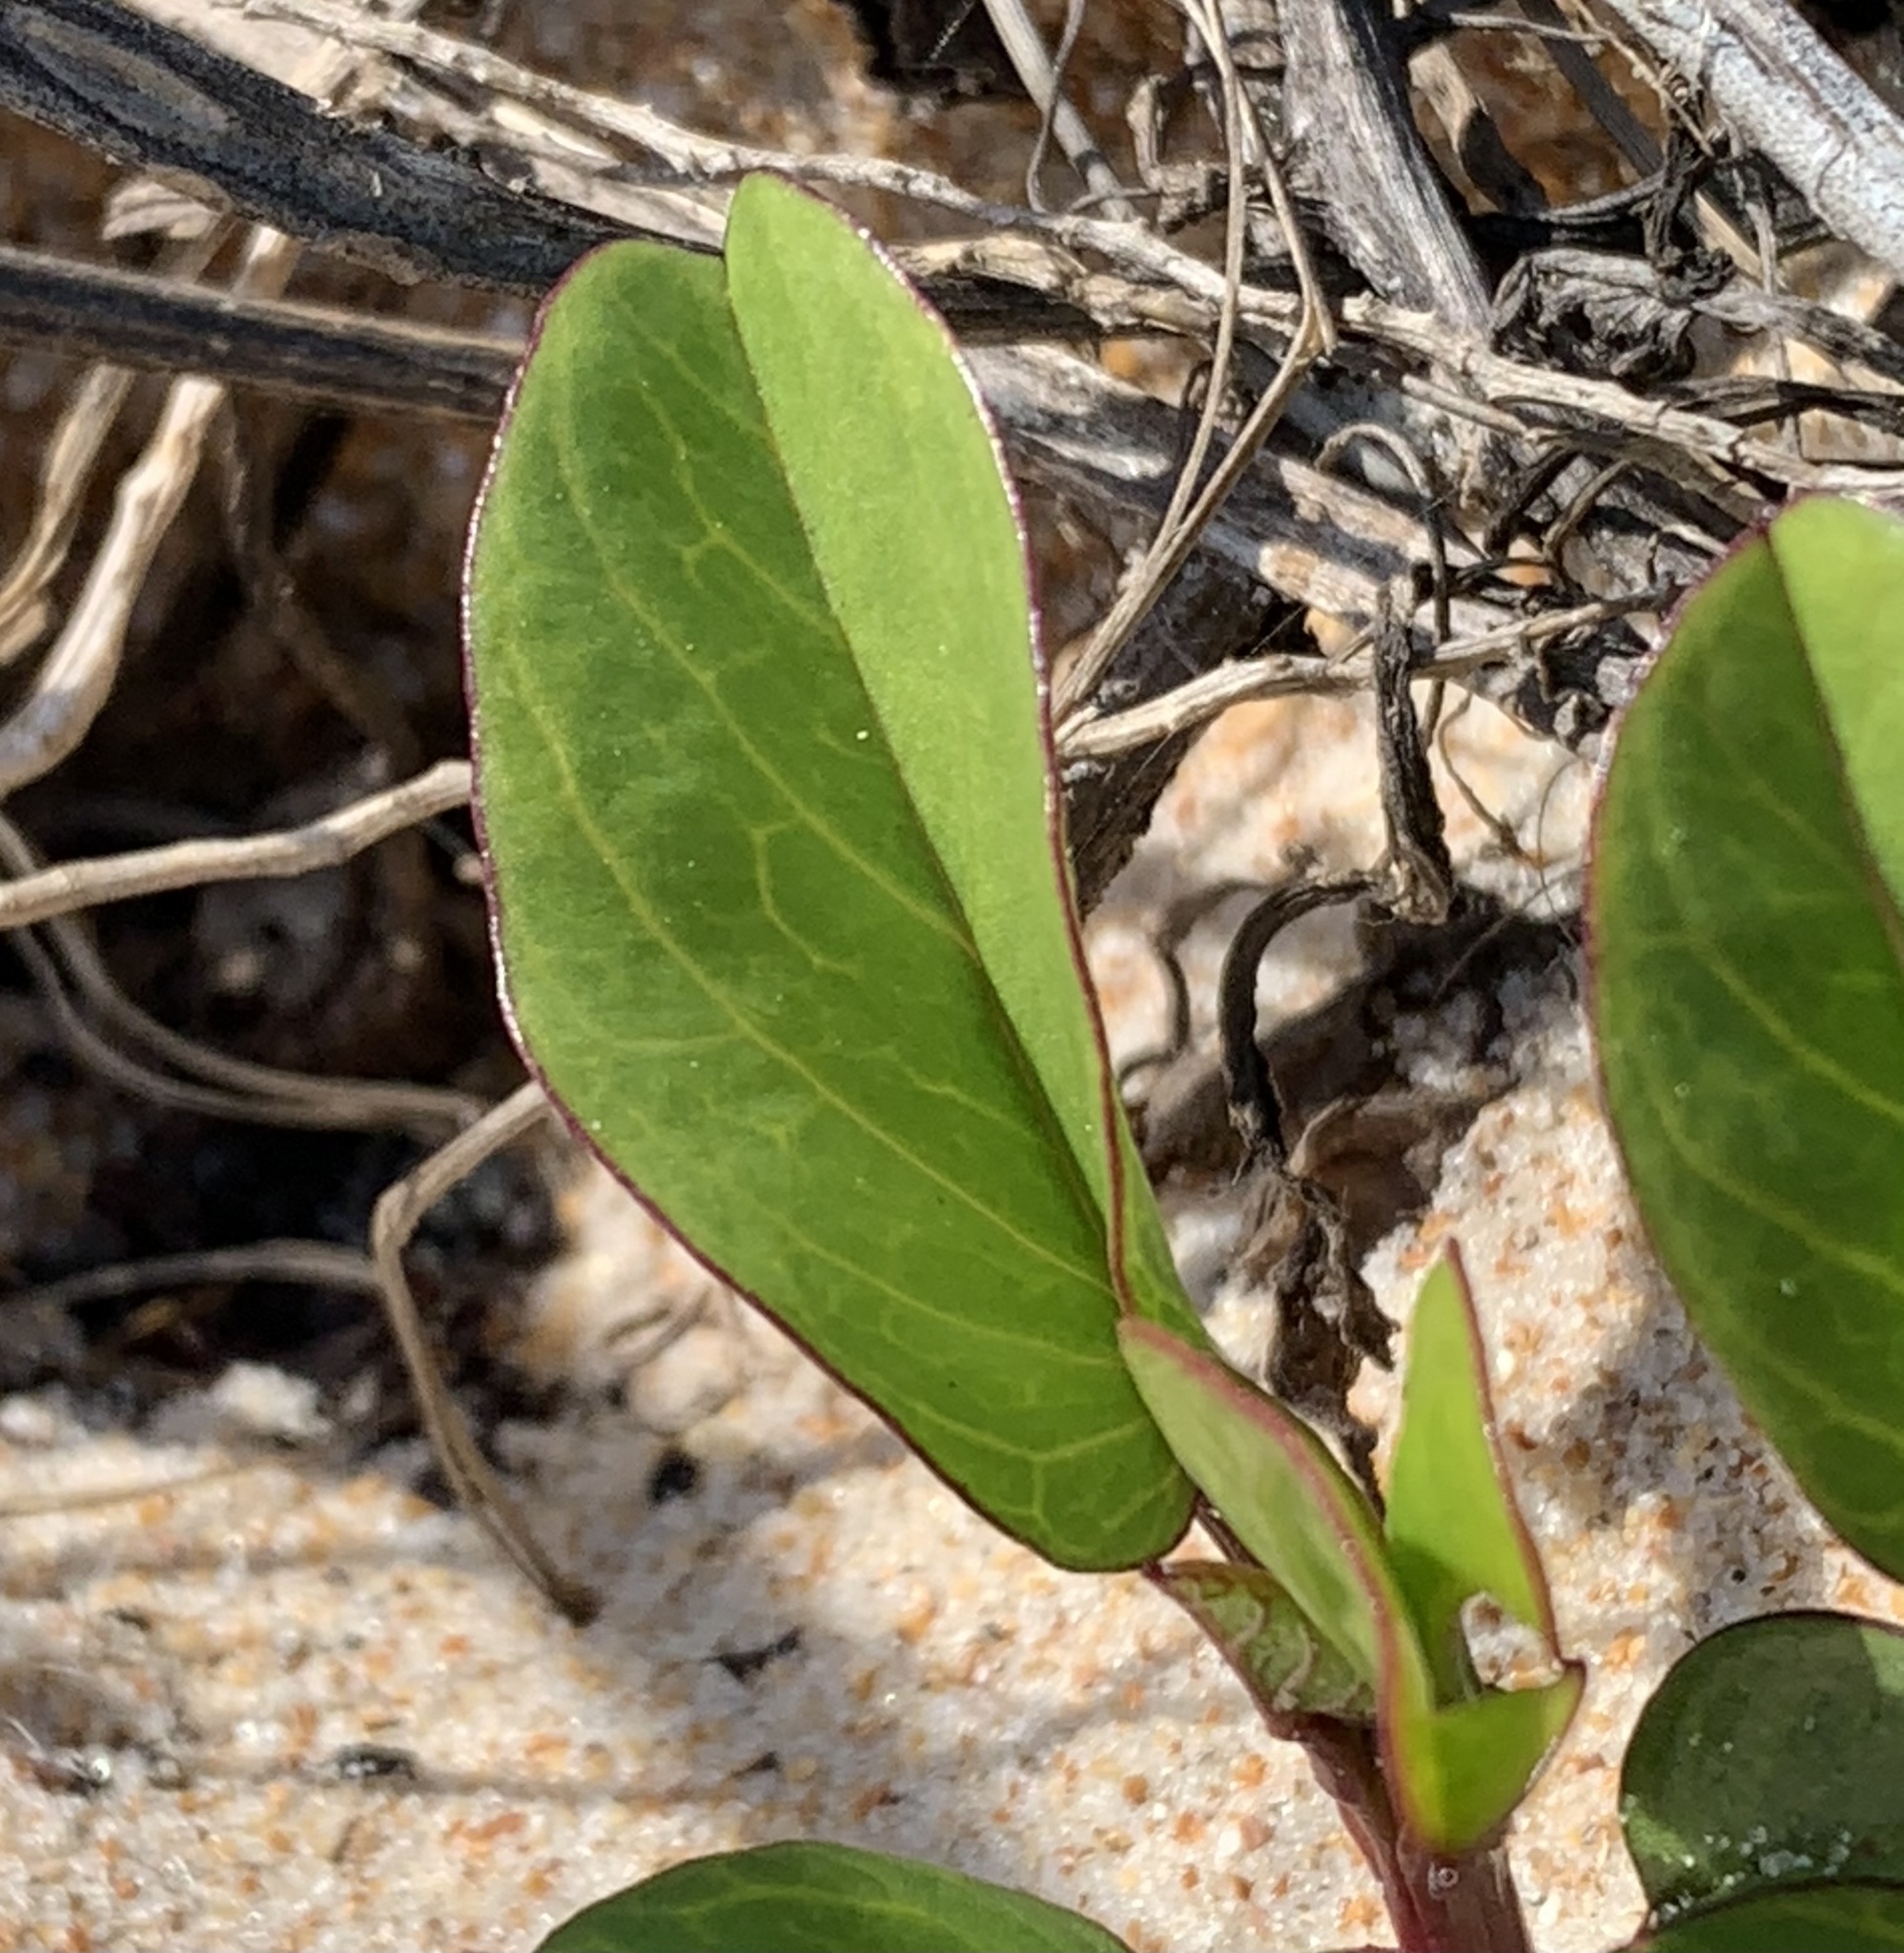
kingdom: Plantae
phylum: Tracheophyta
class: Magnoliopsida
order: Solanales
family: Convolvulaceae
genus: Ipomoea
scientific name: Ipomoea pes-caprae
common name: Beach morning glory
